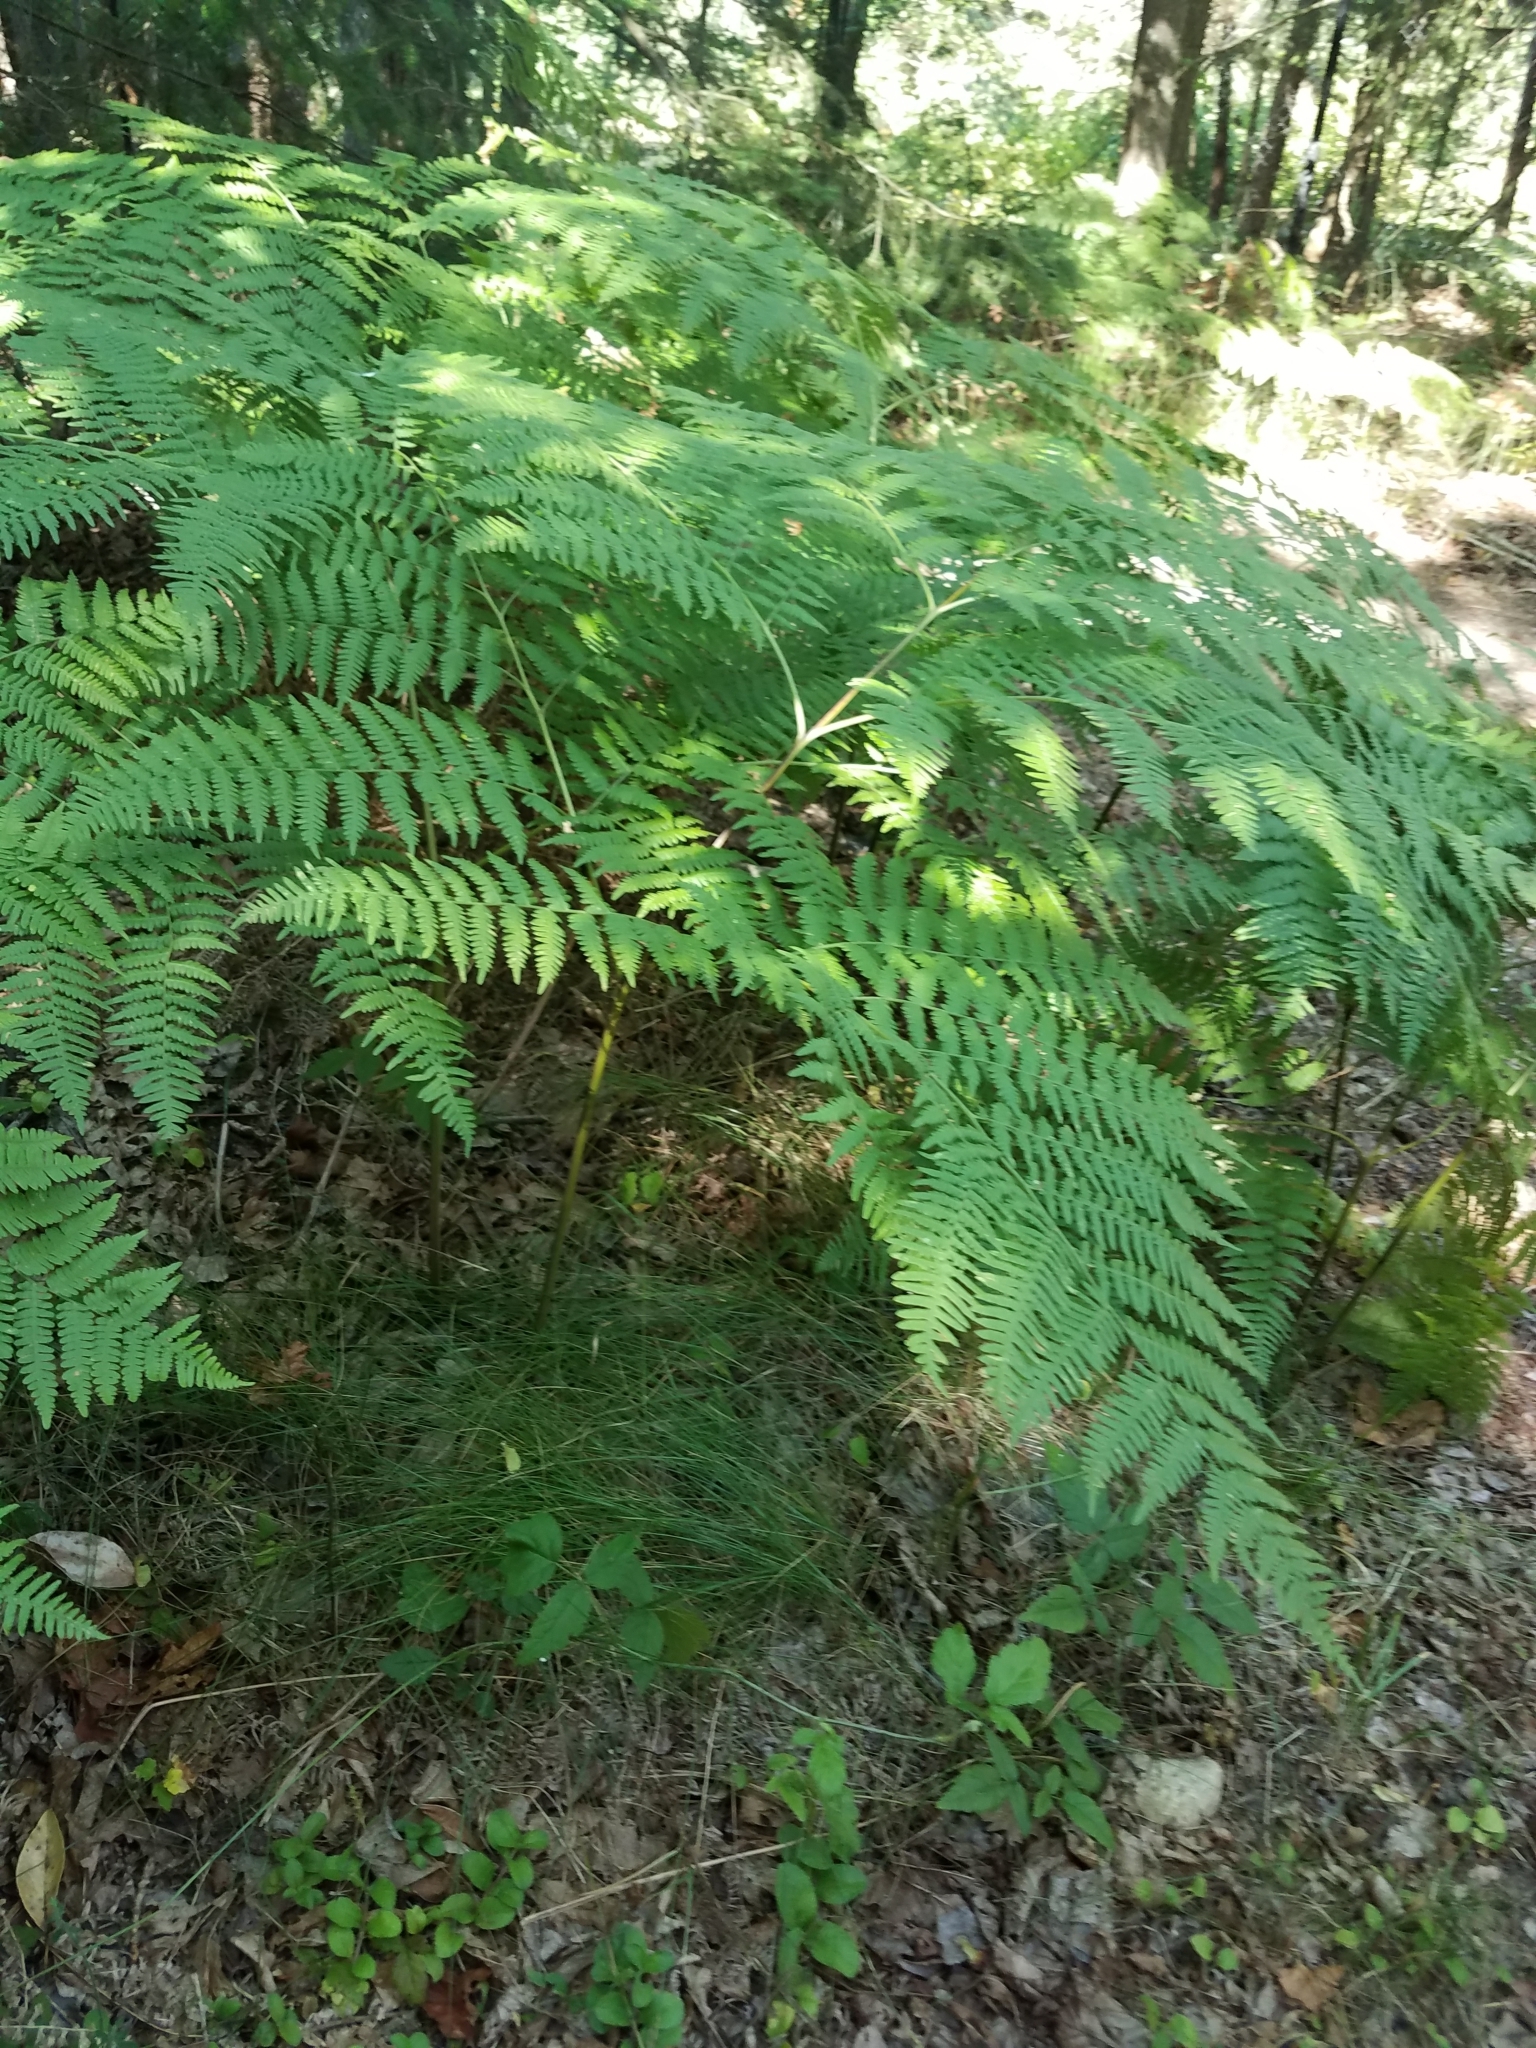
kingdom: Plantae
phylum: Tracheophyta
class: Polypodiopsida
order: Polypodiales
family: Dennstaedtiaceae
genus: Pteridium
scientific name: Pteridium aquilinum
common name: Bracken
